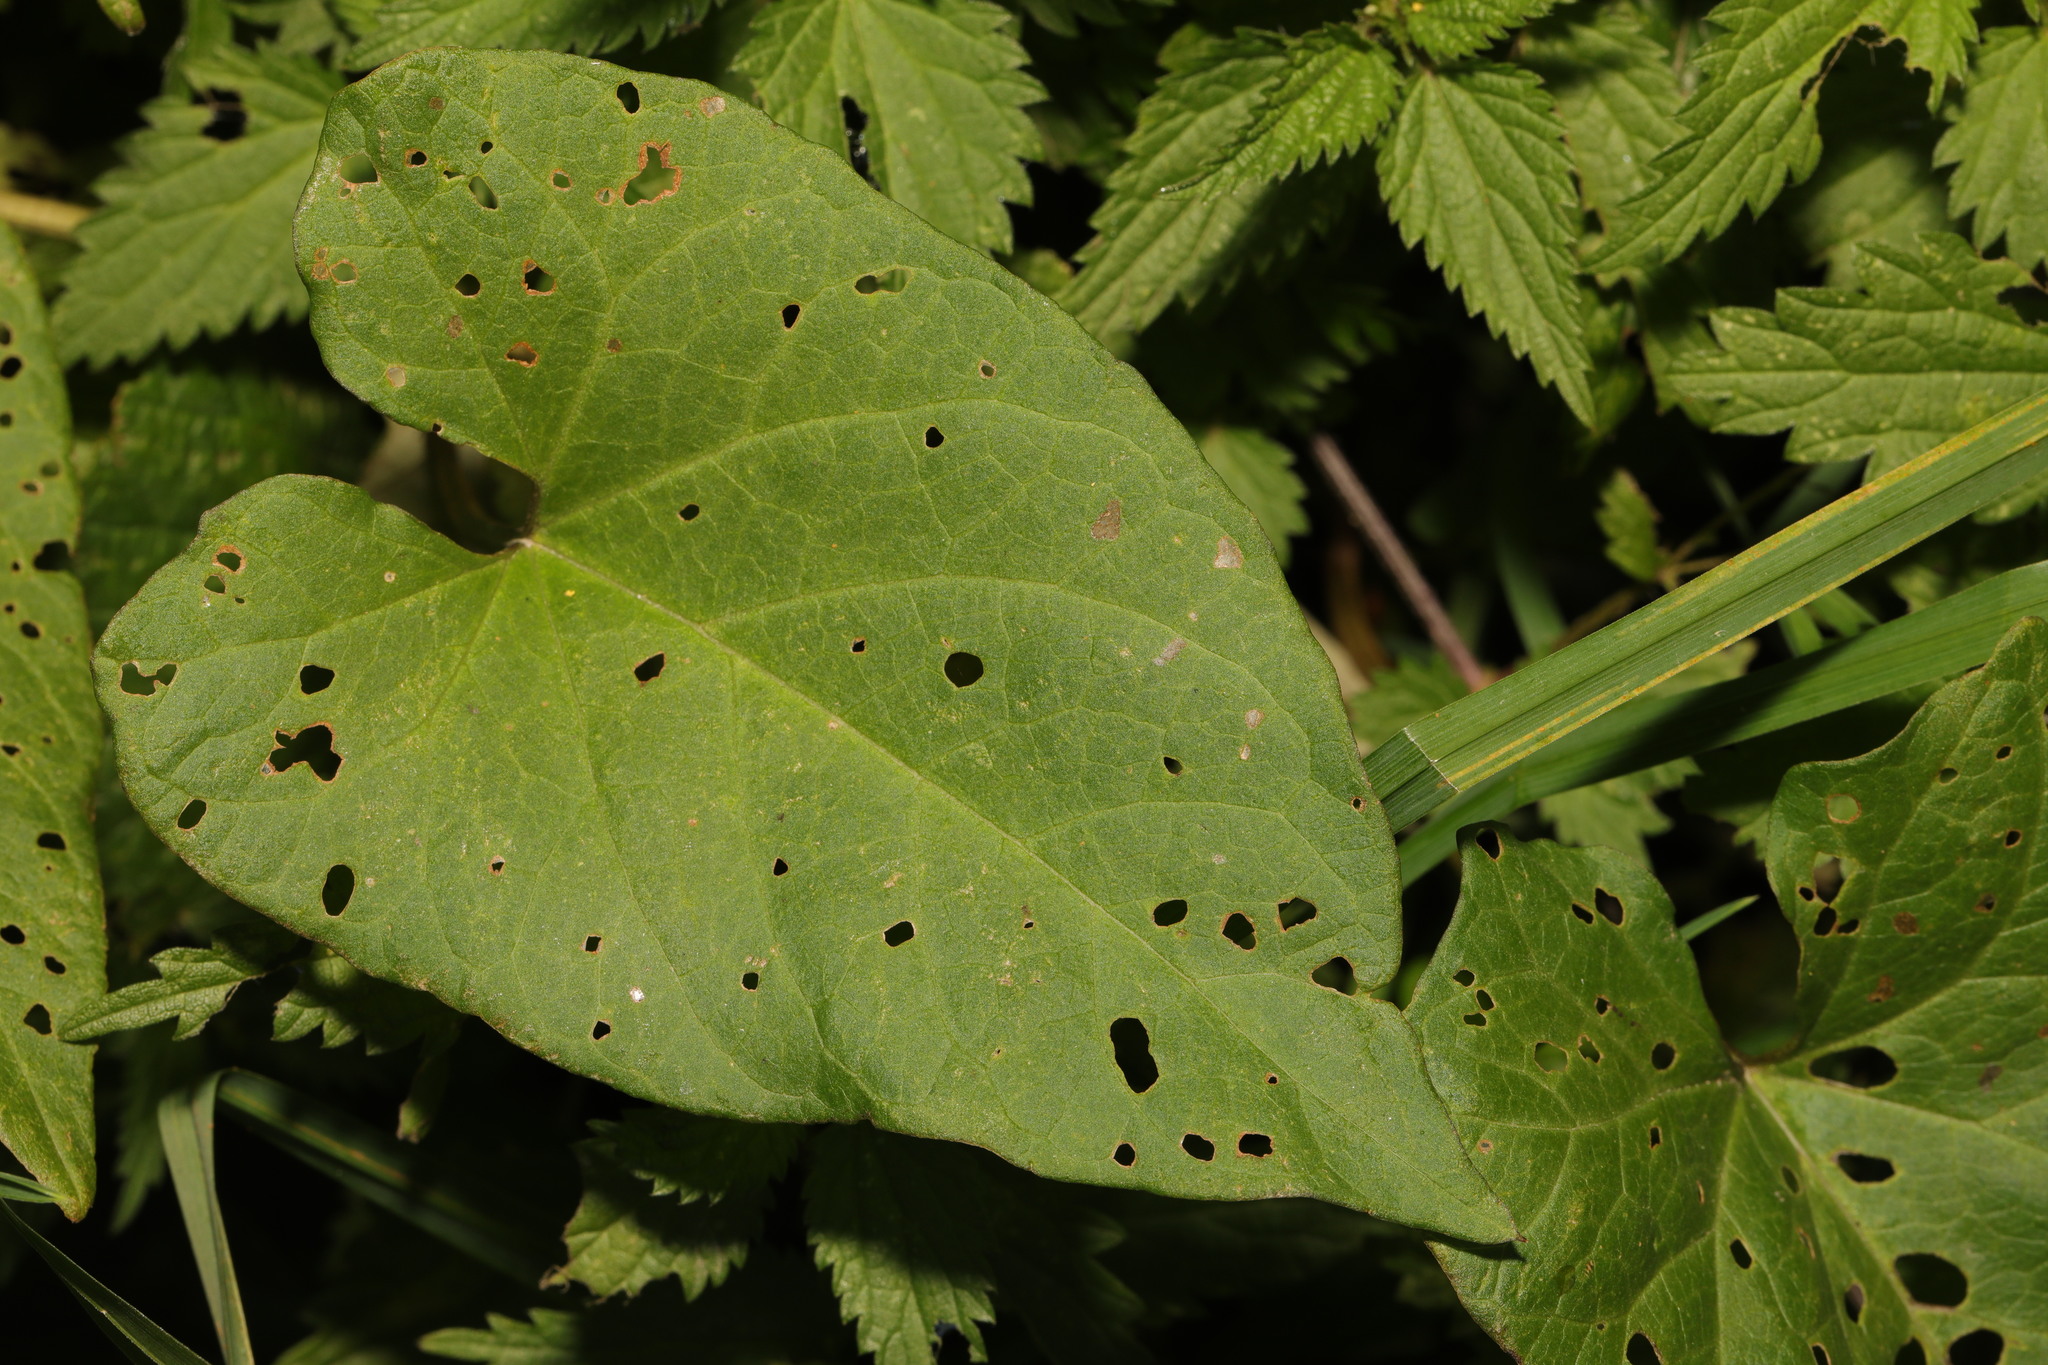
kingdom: Plantae
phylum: Tracheophyta
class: Magnoliopsida
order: Solanales
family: Convolvulaceae
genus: Calystegia
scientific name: Calystegia
